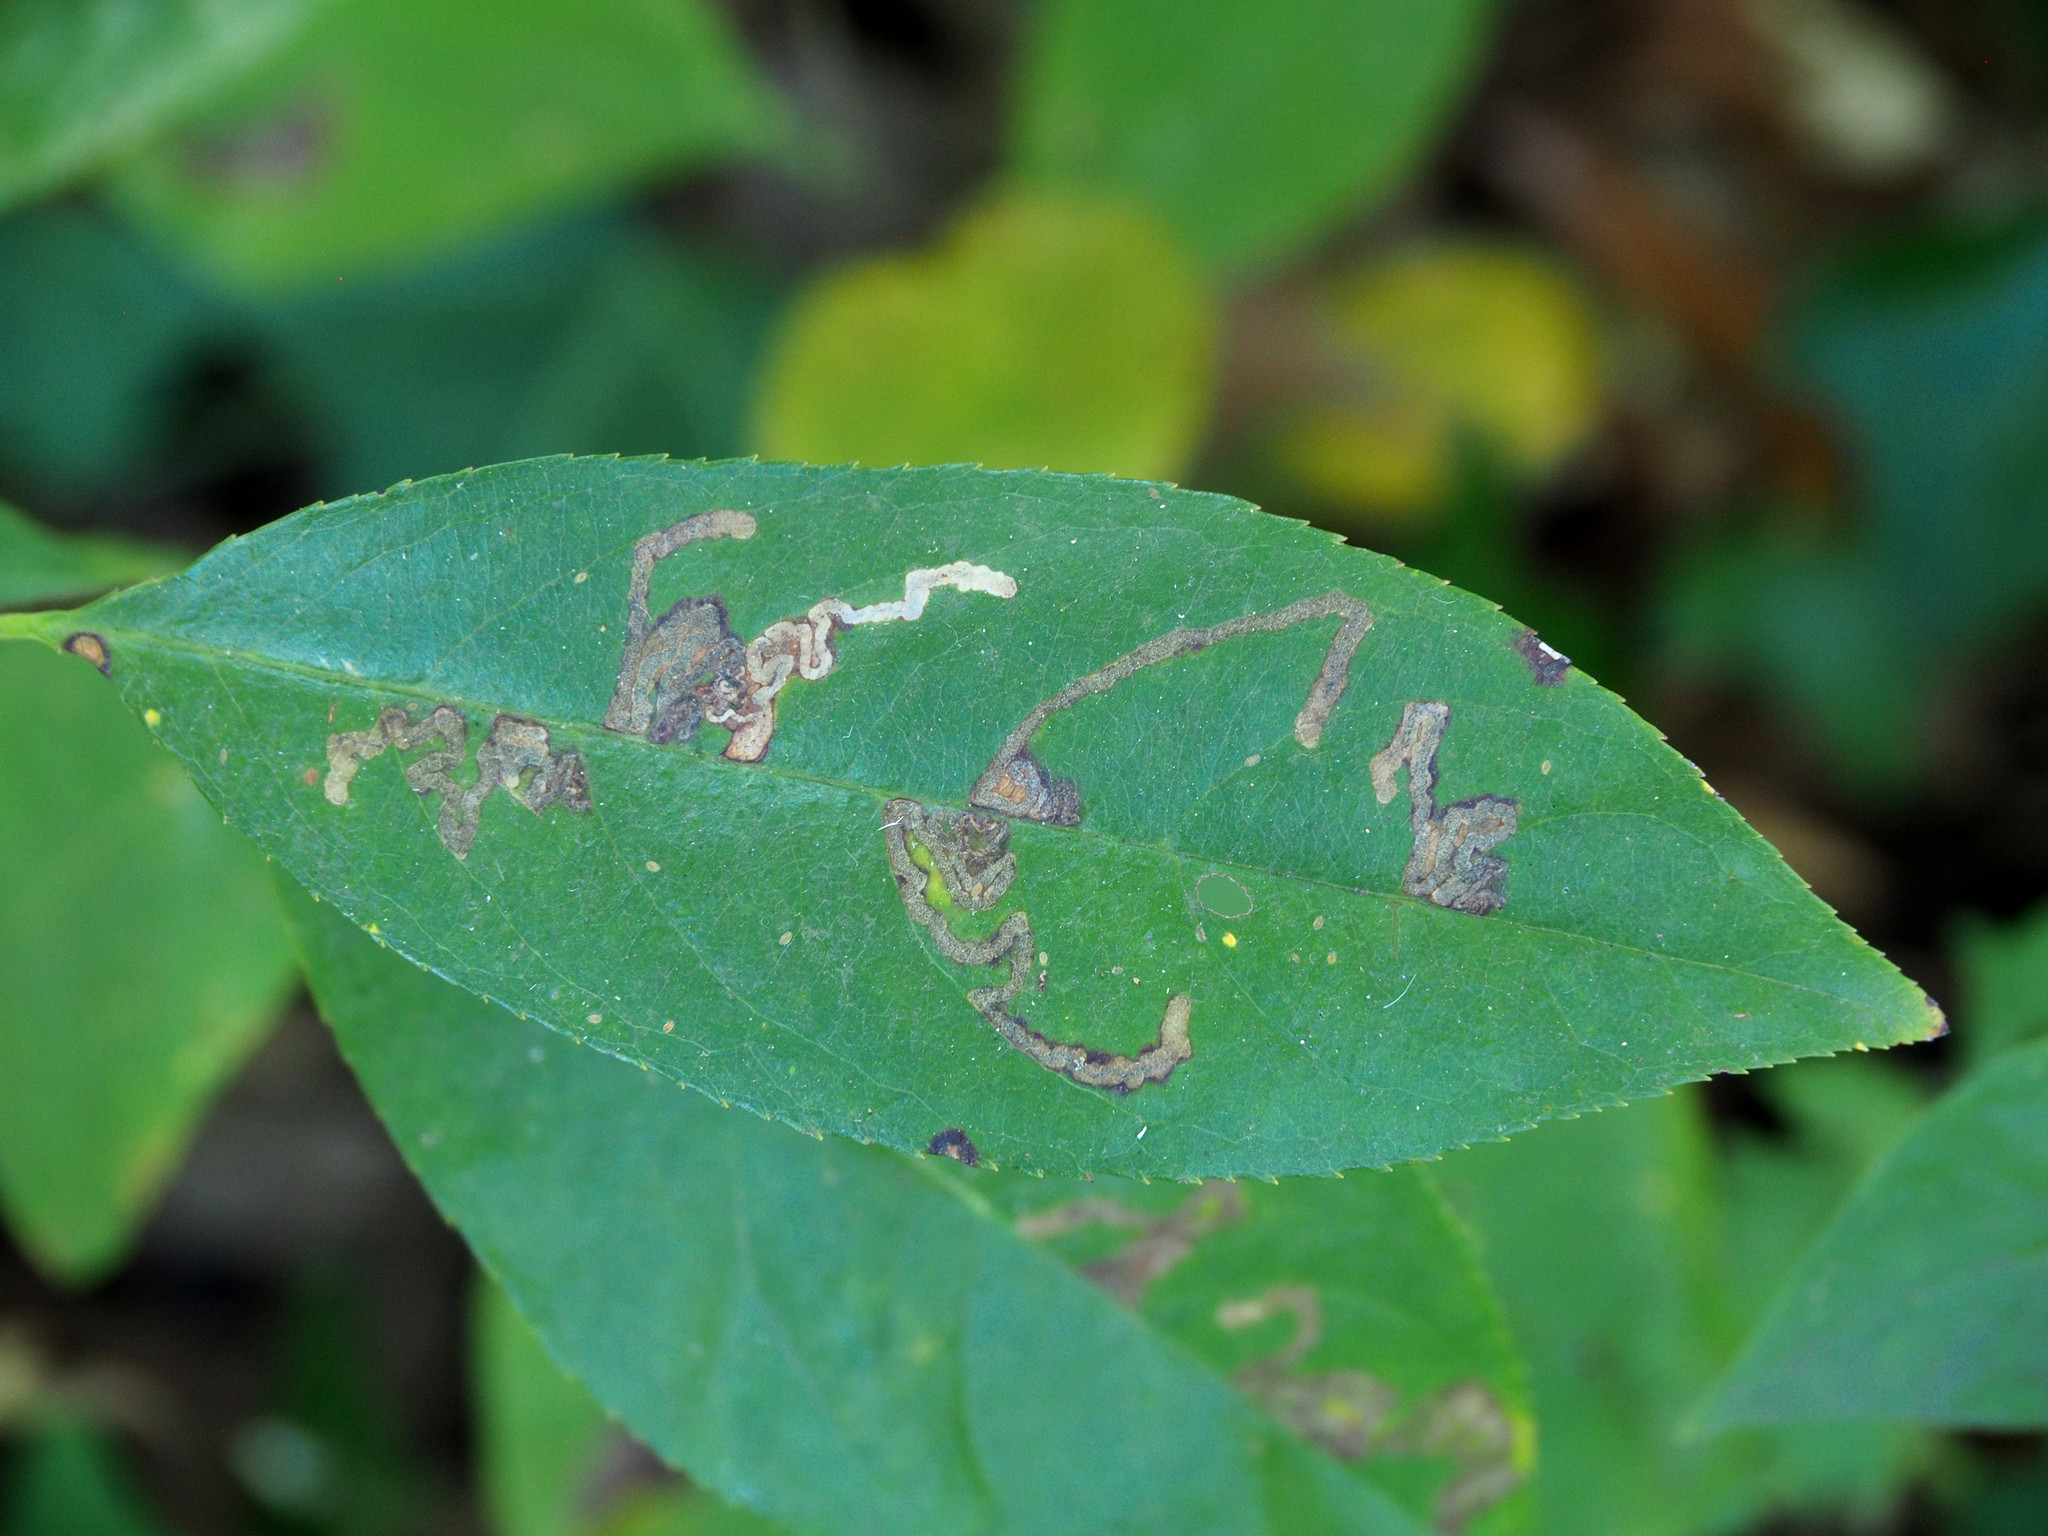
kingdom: Animalia
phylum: Arthropoda
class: Insecta
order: Lepidoptera
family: Nepticulidae
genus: Stigmella
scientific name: Stigmella prunifoliella
